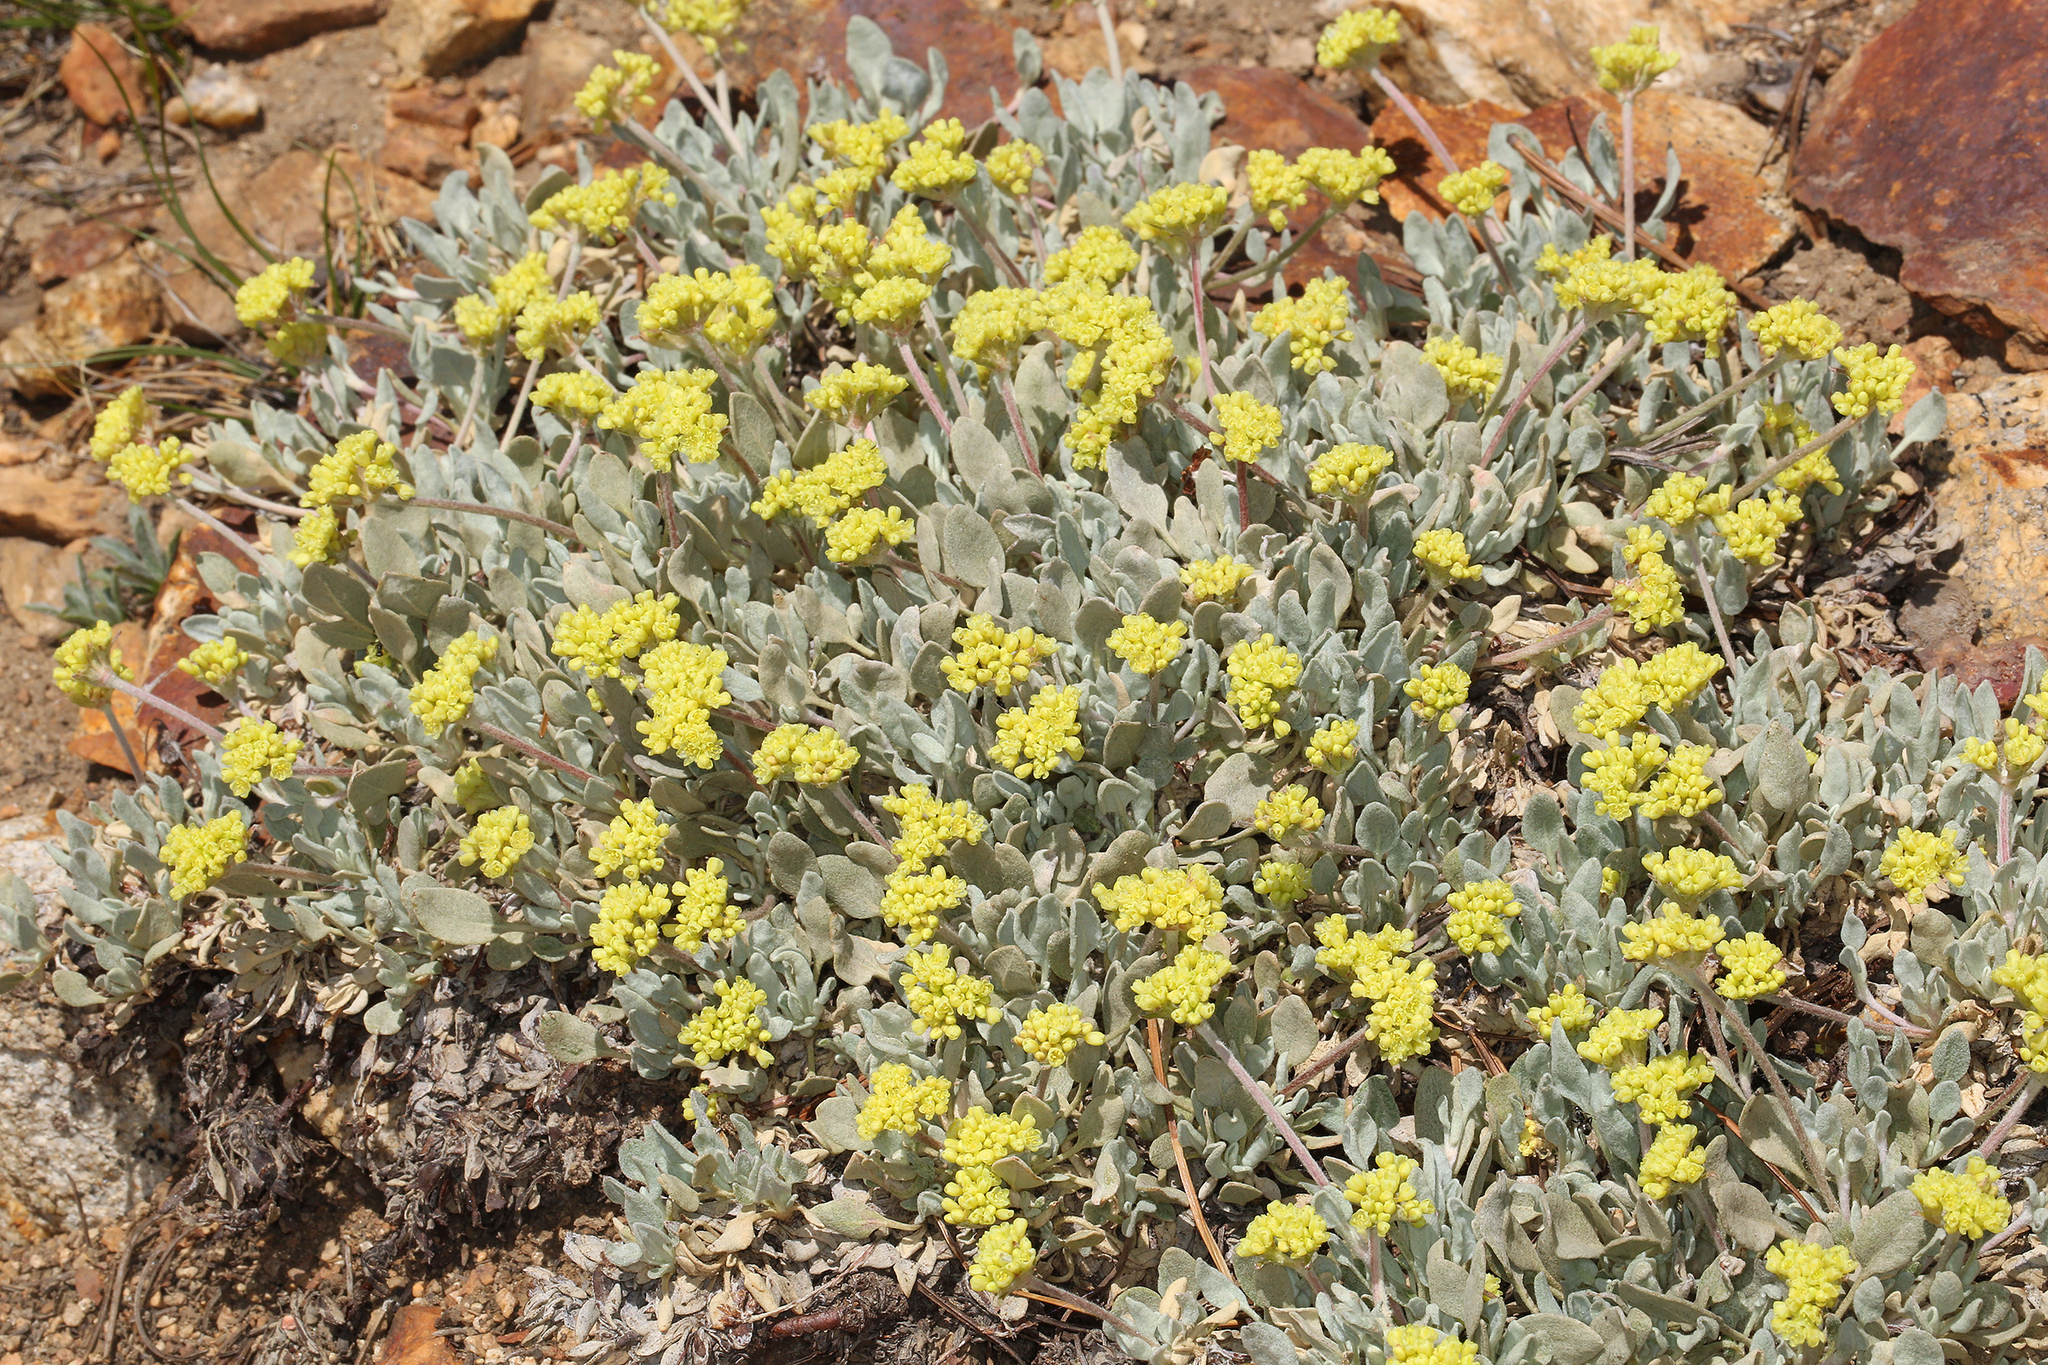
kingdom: Plantae
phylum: Tracheophyta
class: Magnoliopsida
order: Caryophyllales
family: Polygonaceae
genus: Eriogonum
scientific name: Eriogonum incanum
